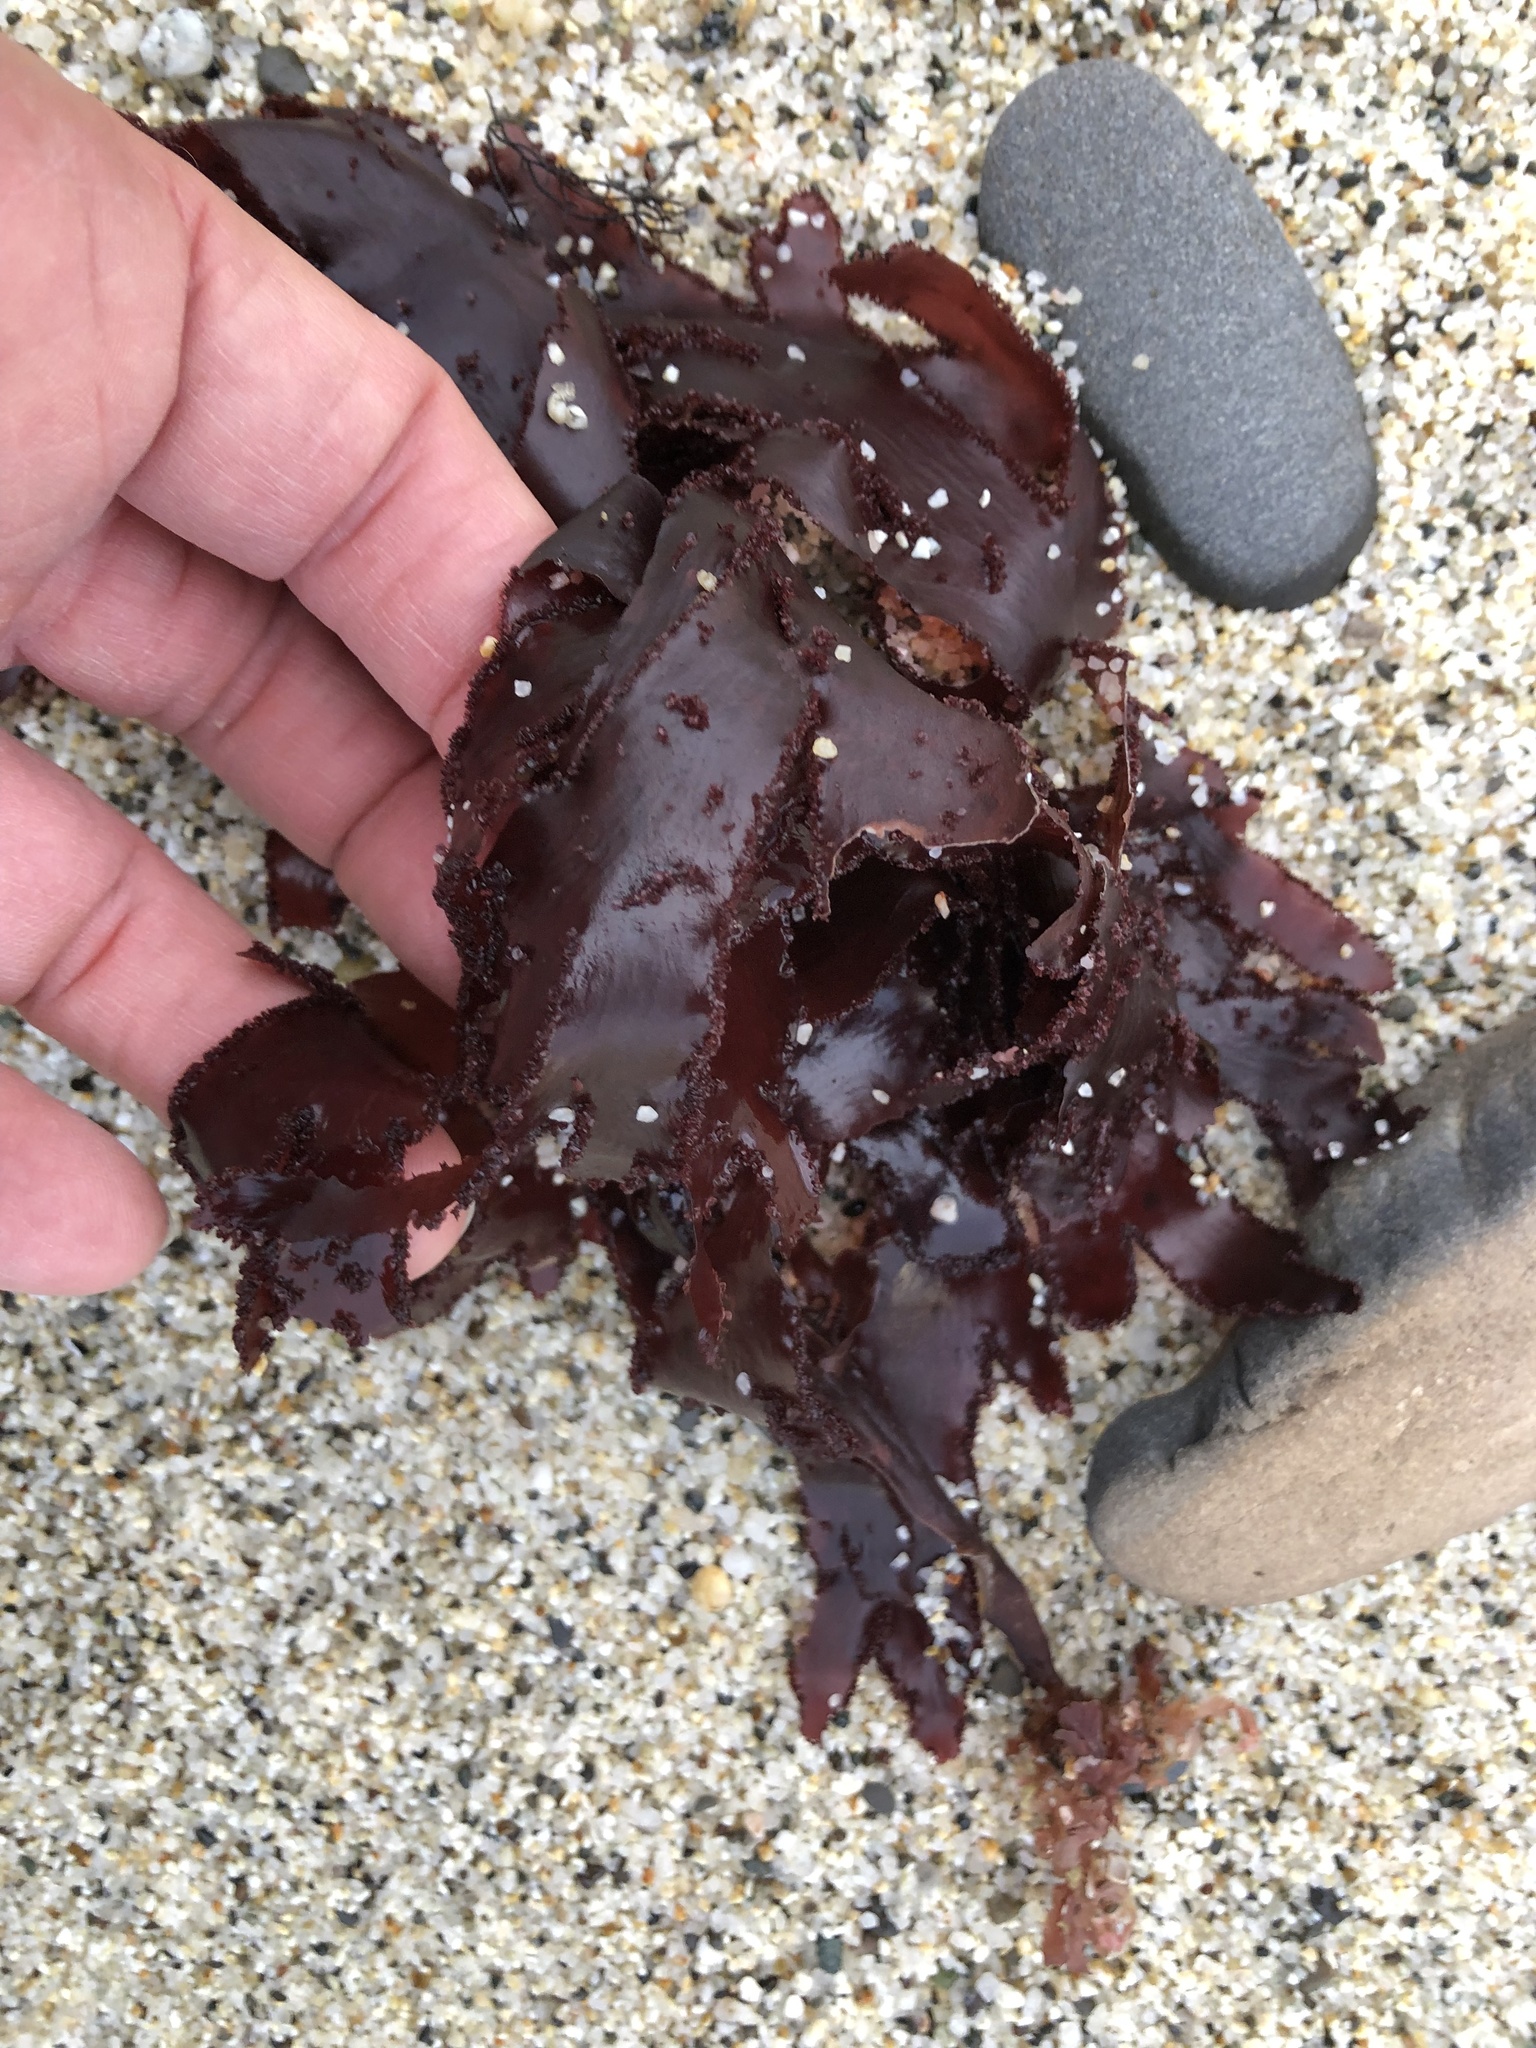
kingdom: Plantae
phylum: Rhodophyta
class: Florideophyceae
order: Ceramiales
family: Delesseriaceae
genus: Cryptopleura
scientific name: Cryptopleura ruprechtiana
